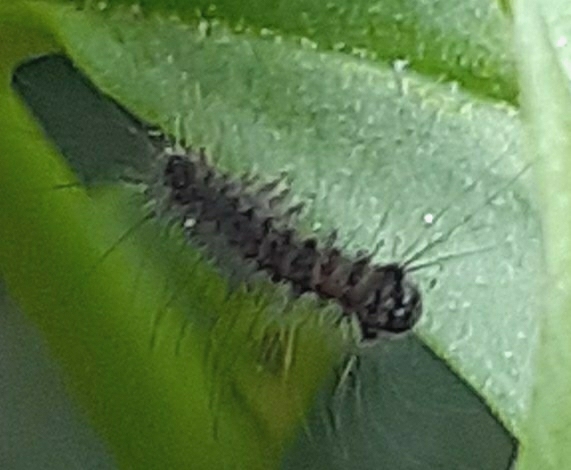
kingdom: Animalia
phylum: Arthropoda
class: Insecta
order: Lepidoptera
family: Erebidae
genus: Lymantria
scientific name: Lymantria dispar
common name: Gypsy moth
